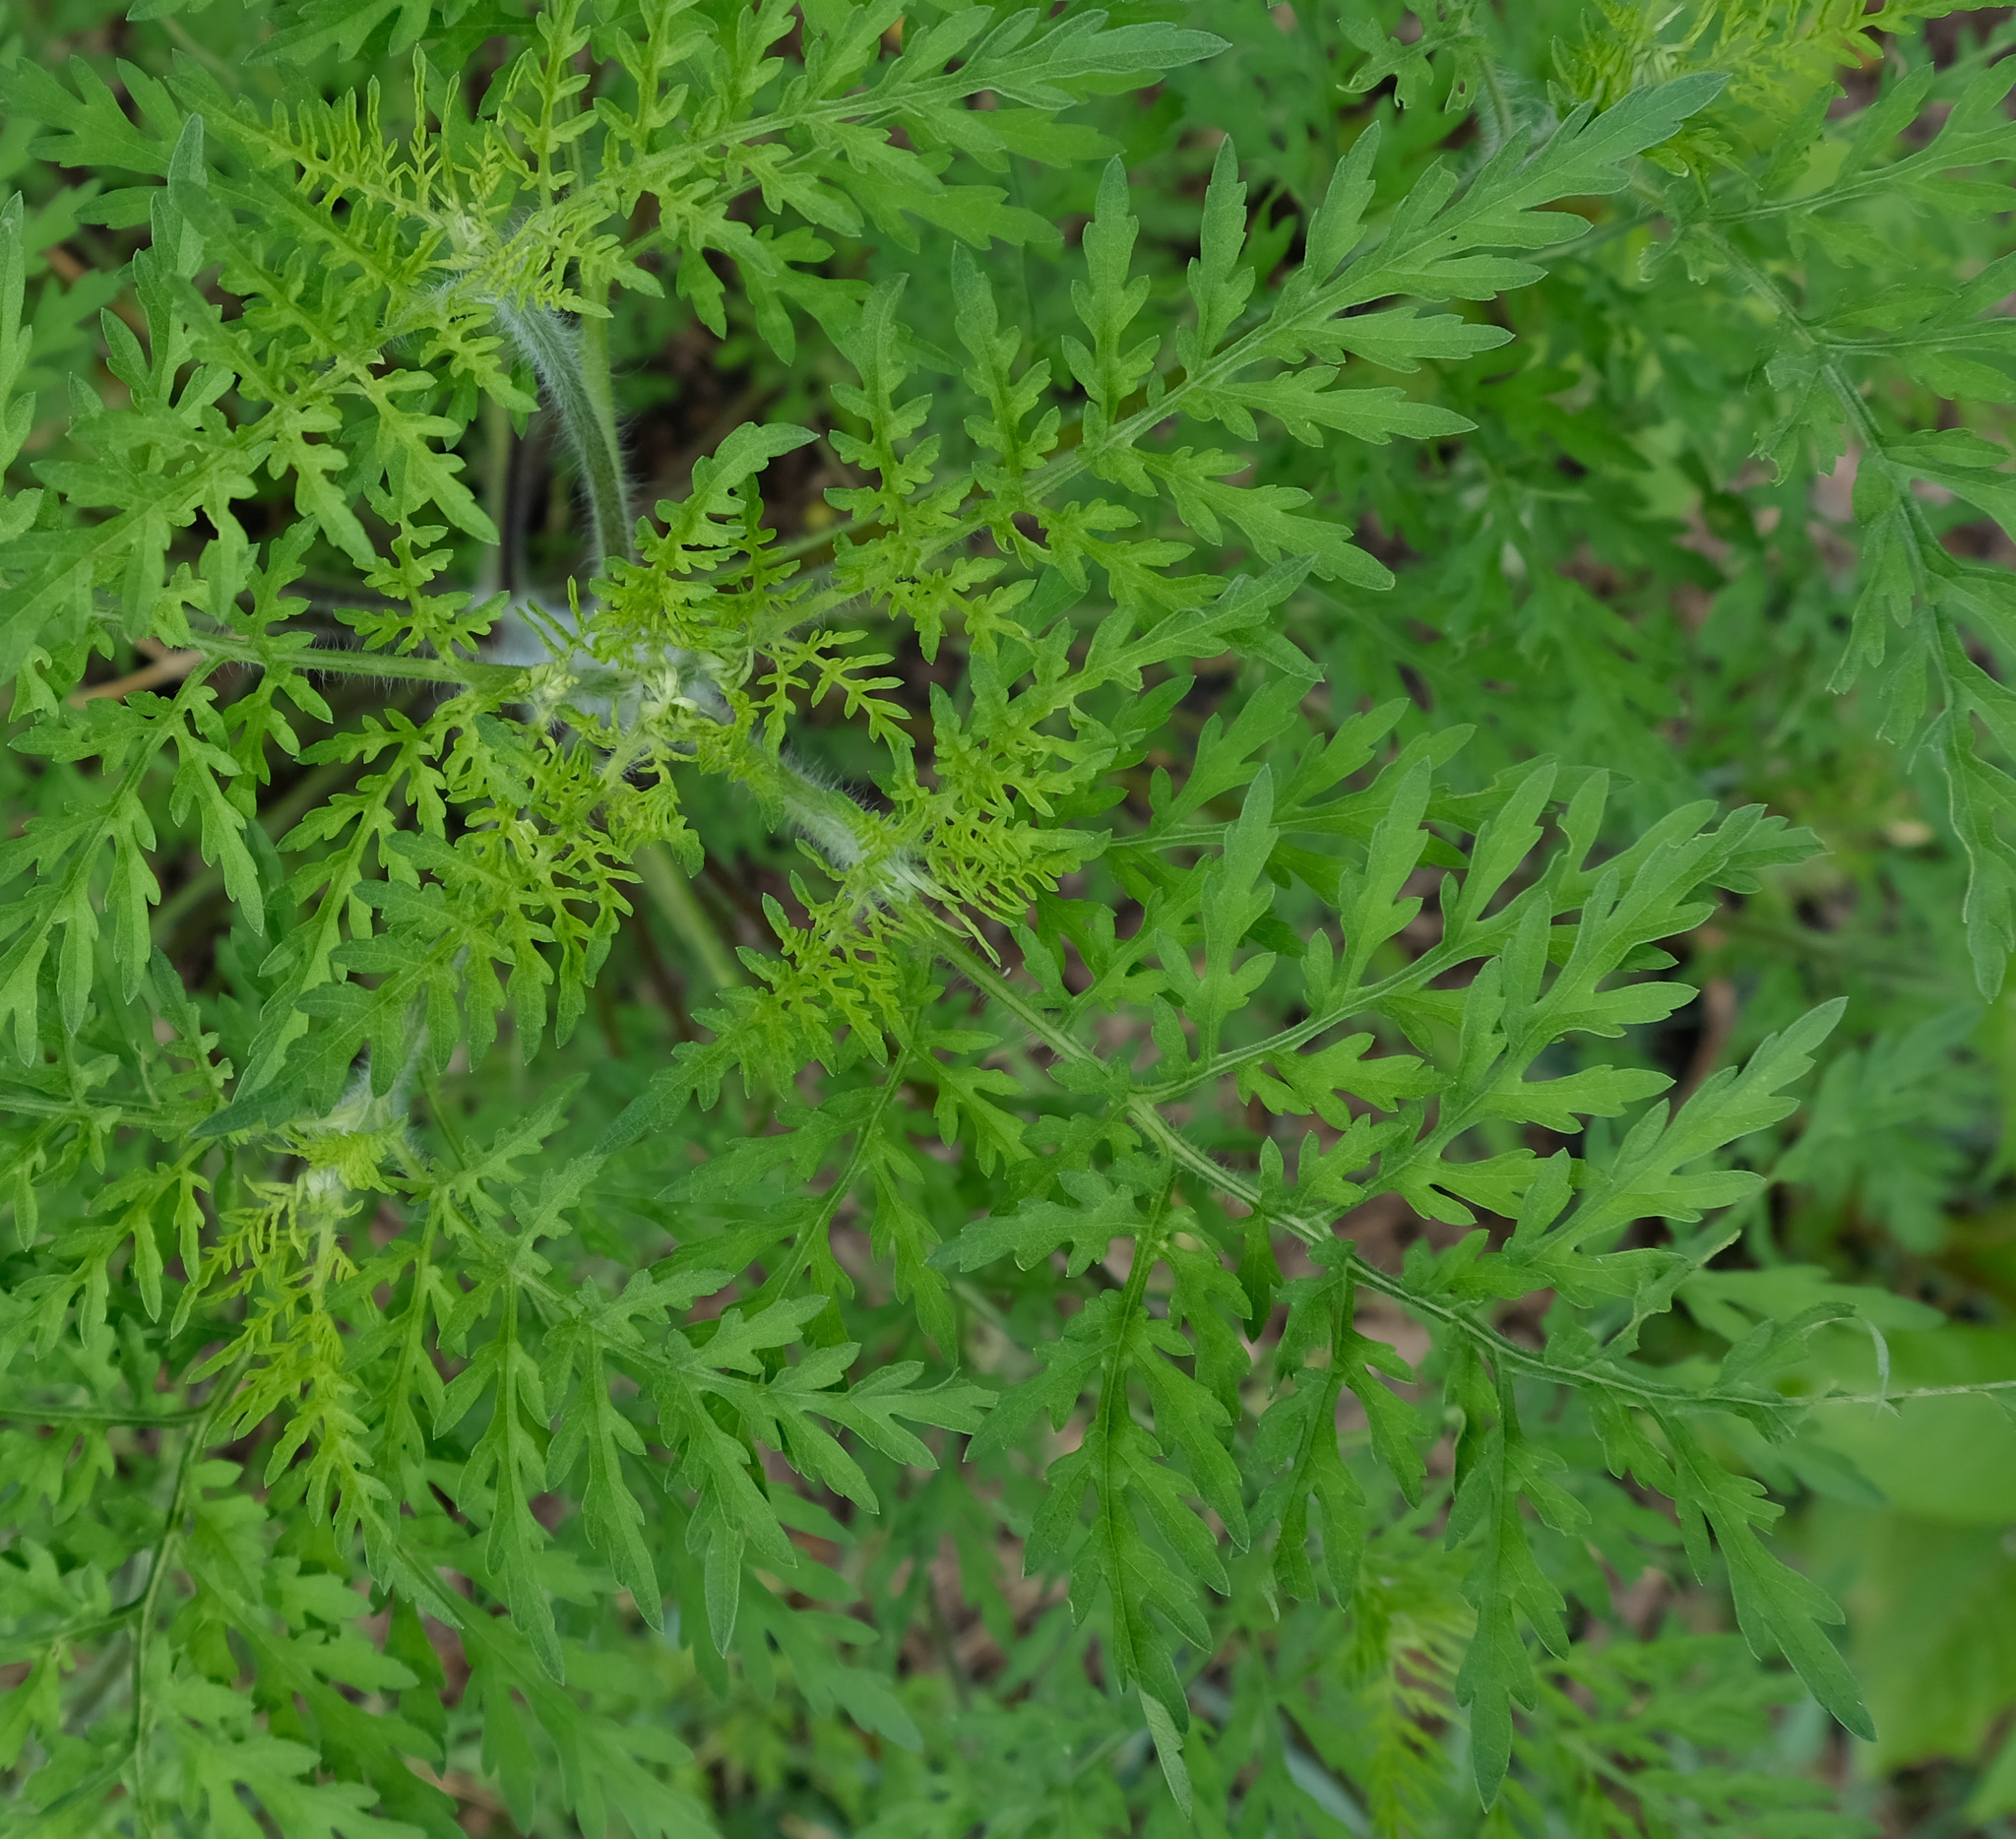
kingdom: Plantae
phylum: Tracheophyta
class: Magnoliopsida
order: Asterales
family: Asteraceae
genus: Ambrosia
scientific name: Ambrosia artemisiifolia
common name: Annual ragweed
